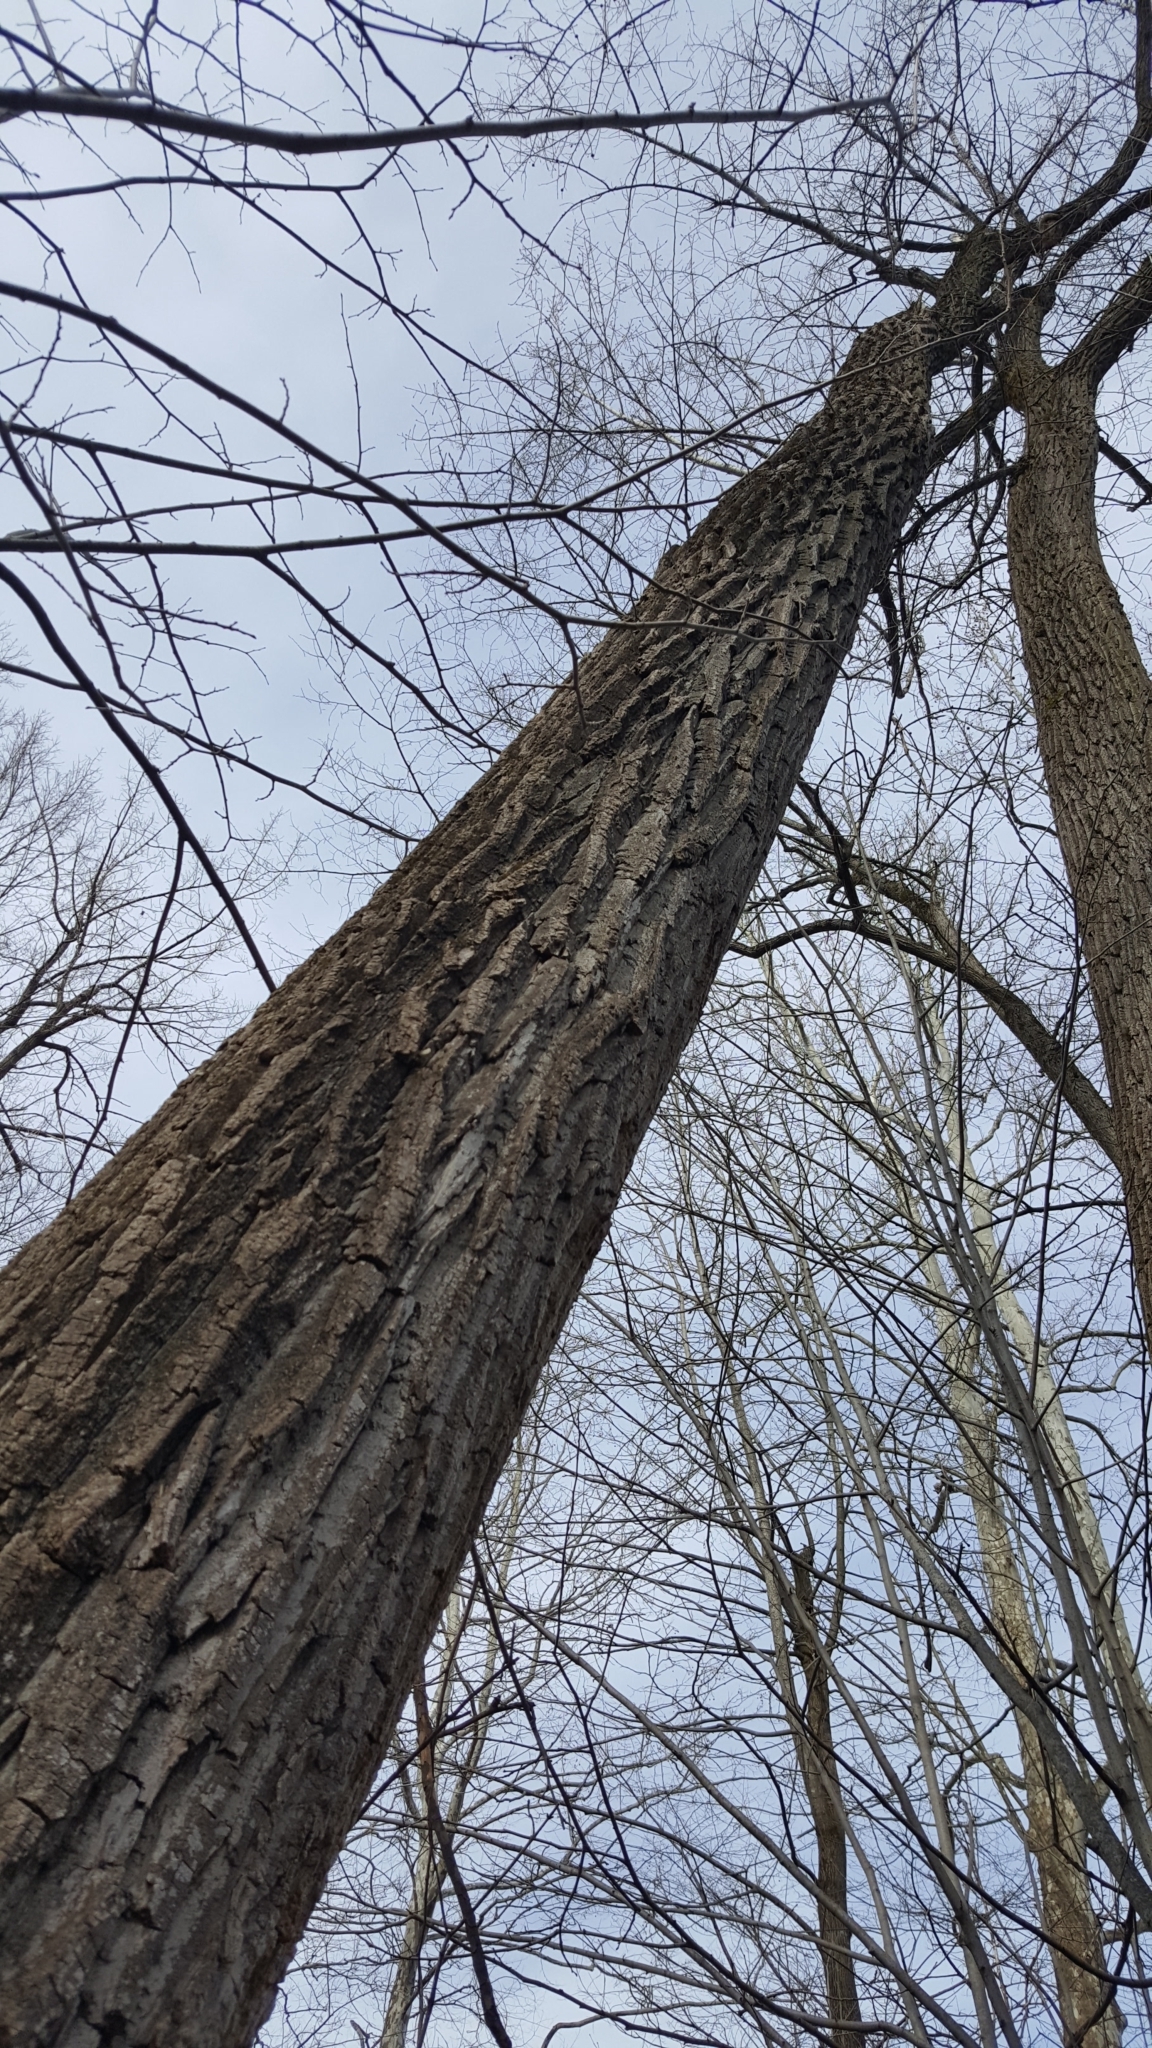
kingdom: Plantae
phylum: Tracheophyta
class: Magnoliopsida
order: Malpighiales
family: Salicaceae
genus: Populus
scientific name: Populus deltoides
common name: Eastern cottonwood
